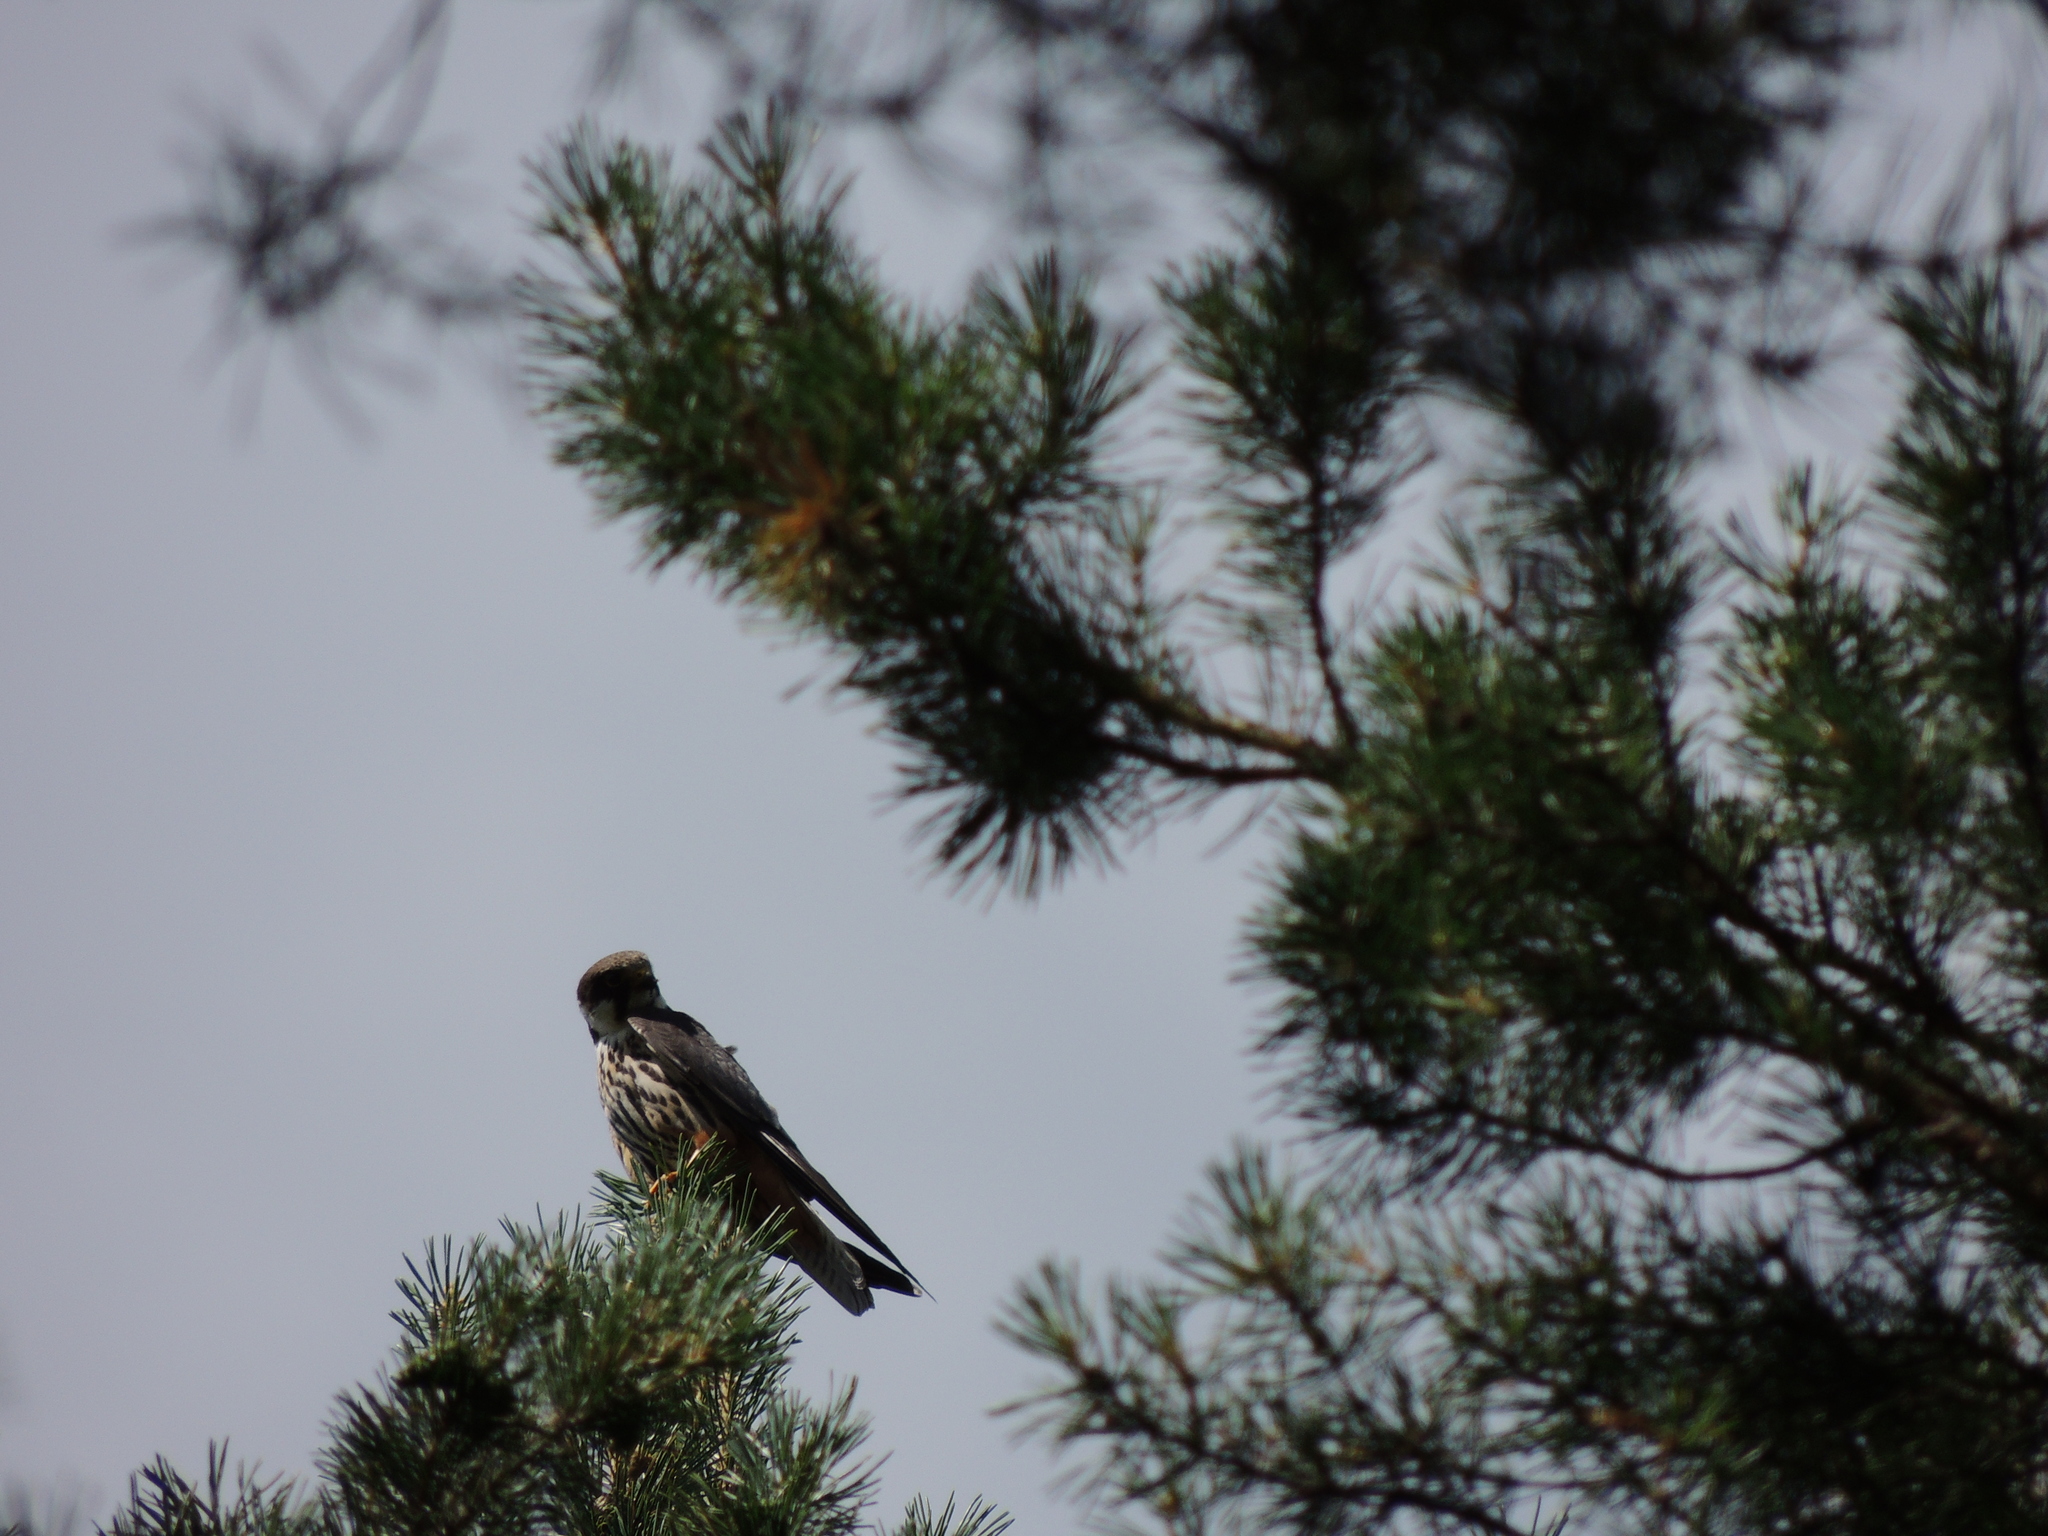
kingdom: Animalia
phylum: Chordata
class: Aves
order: Falconiformes
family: Falconidae
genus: Falco
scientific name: Falco subbuteo
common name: Eurasian hobby
